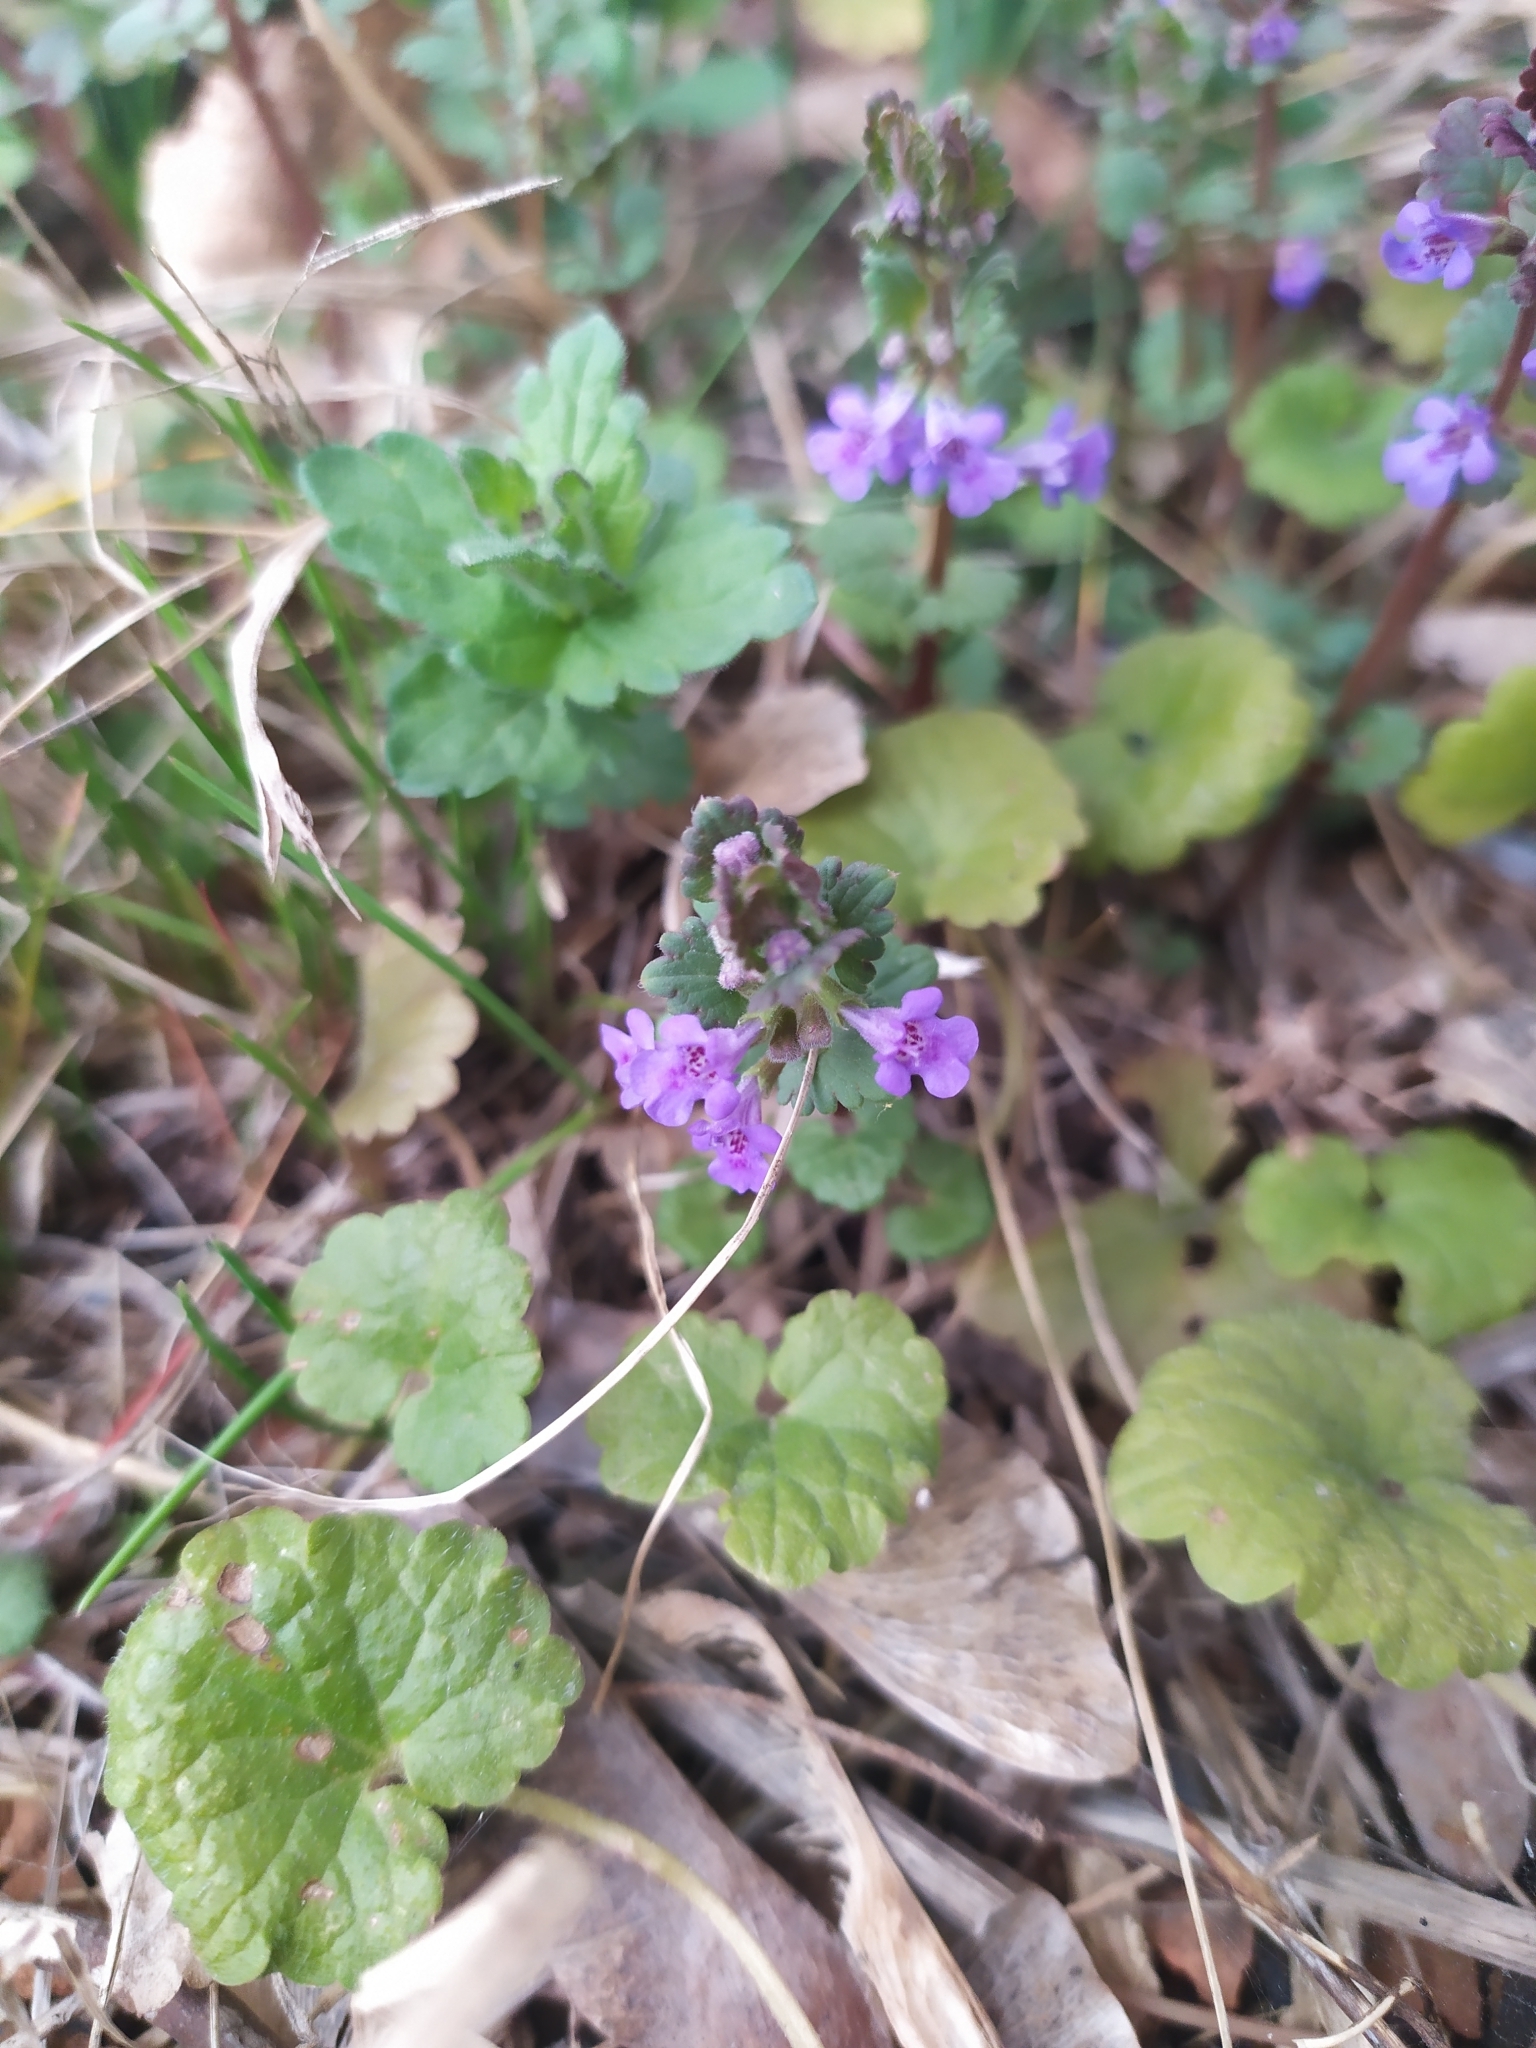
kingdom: Plantae
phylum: Tracheophyta
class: Magnoliopsida
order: Lamiales
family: Lamiaceae
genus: Glechoma
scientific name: Glechoma hederacea
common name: Ground ivy
